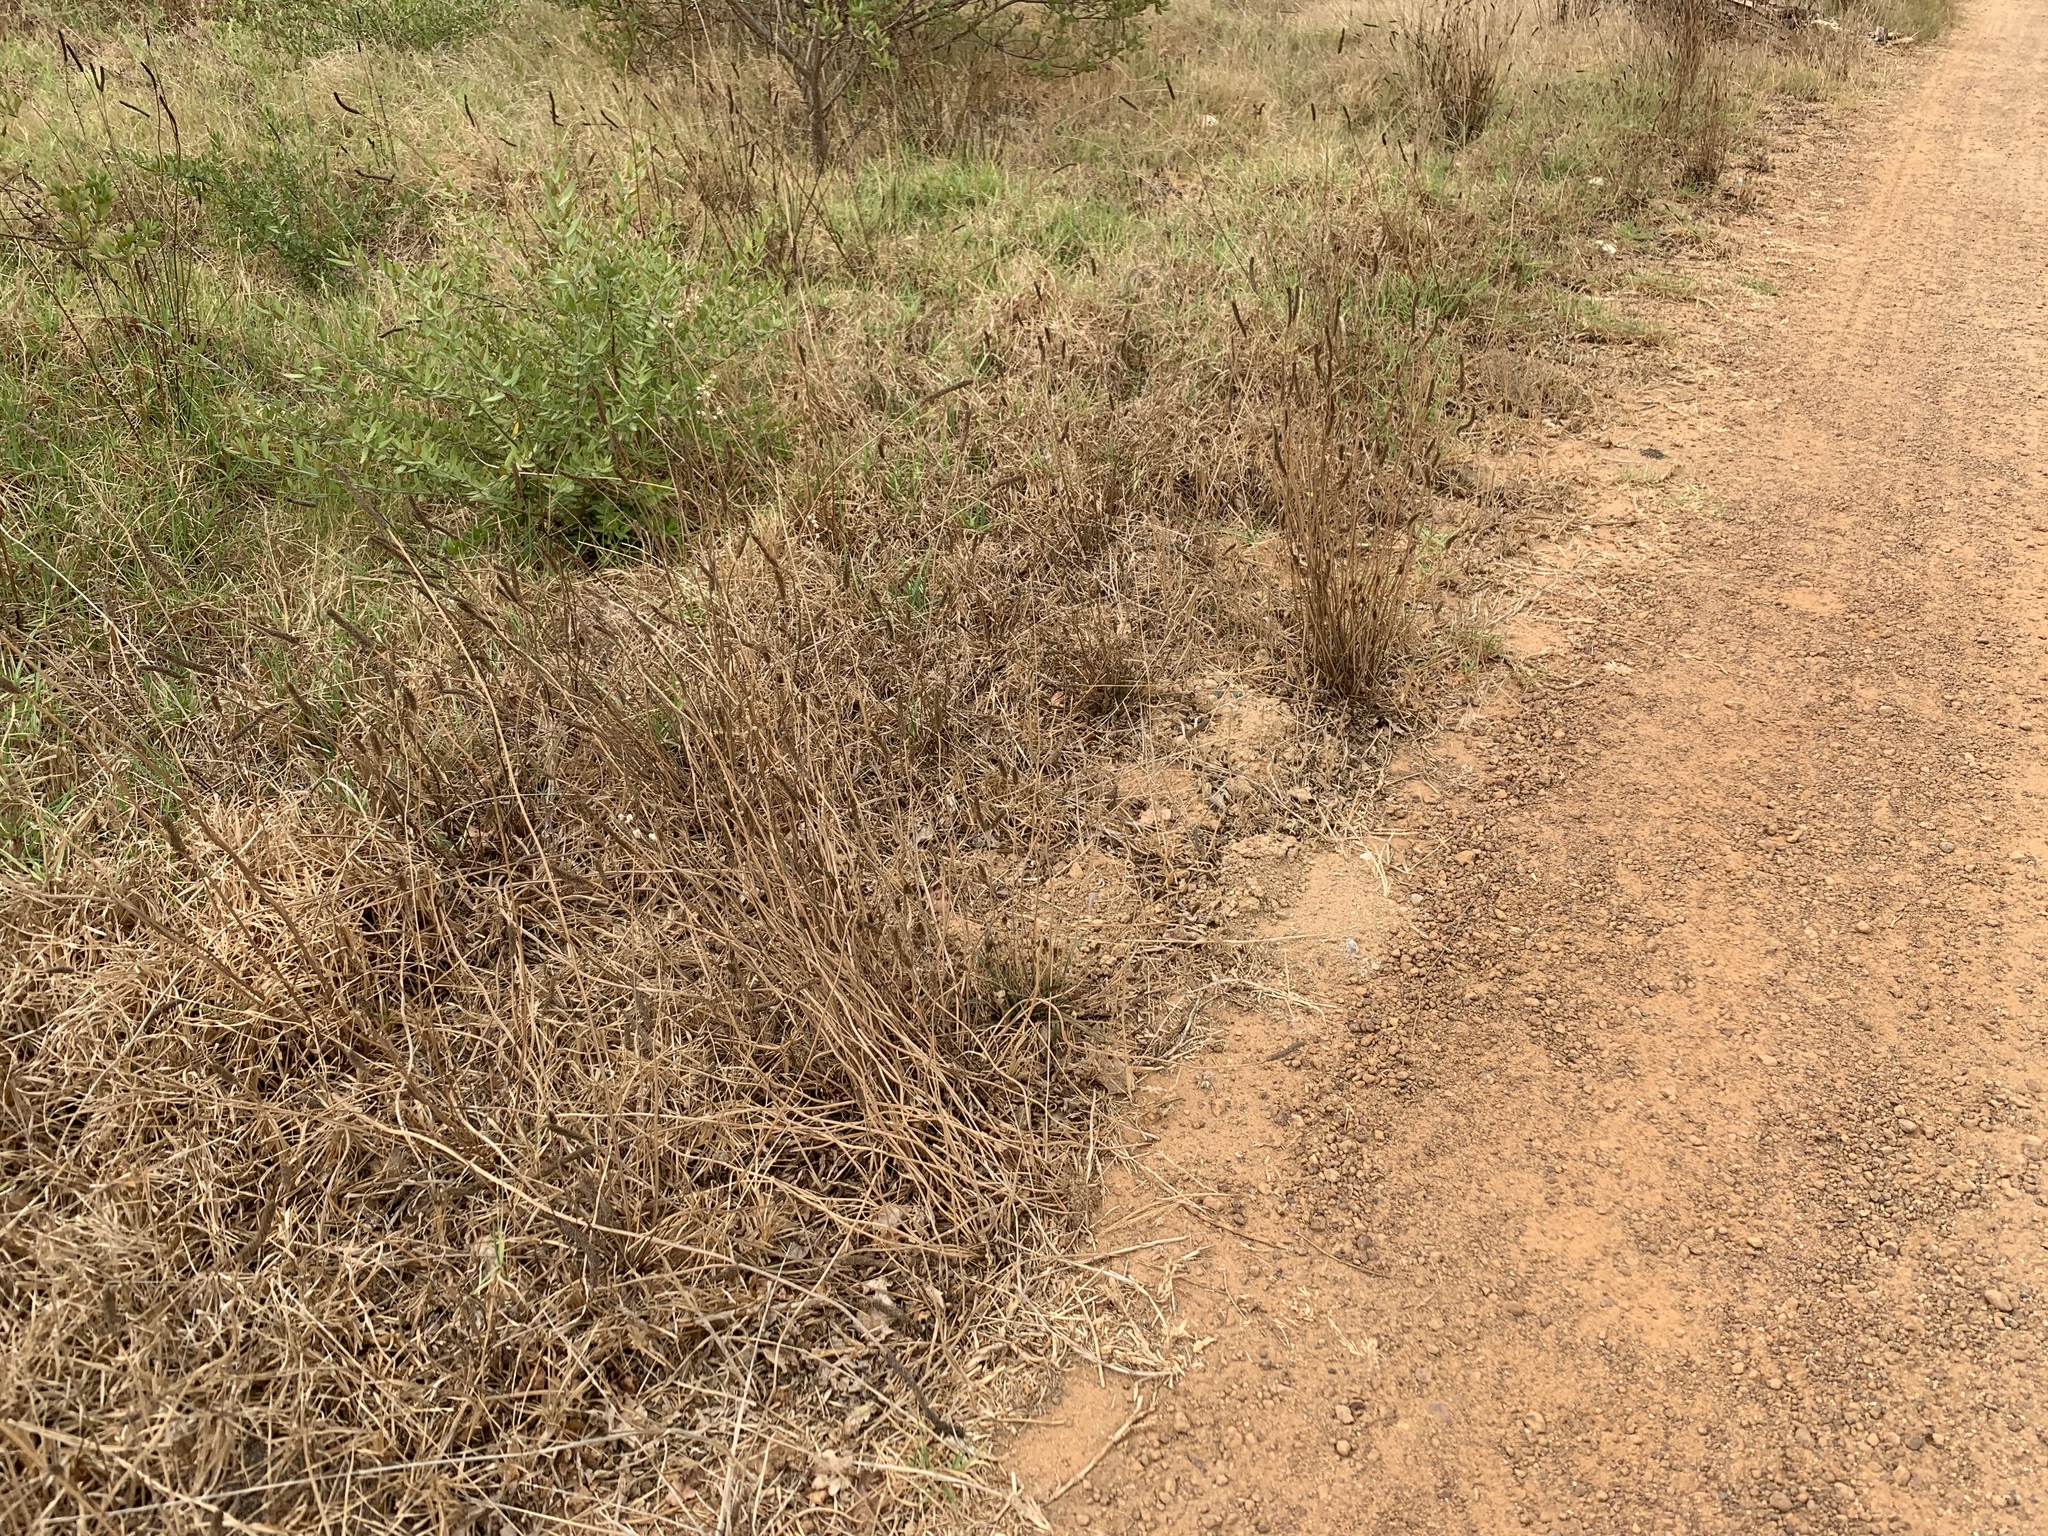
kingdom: Plantae
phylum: Tracheophyta
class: Magnoliopsida
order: Lamiales
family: Plantaginaceae
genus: Plantago
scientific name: Plantago lanceolata
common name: Ribwort plantain
